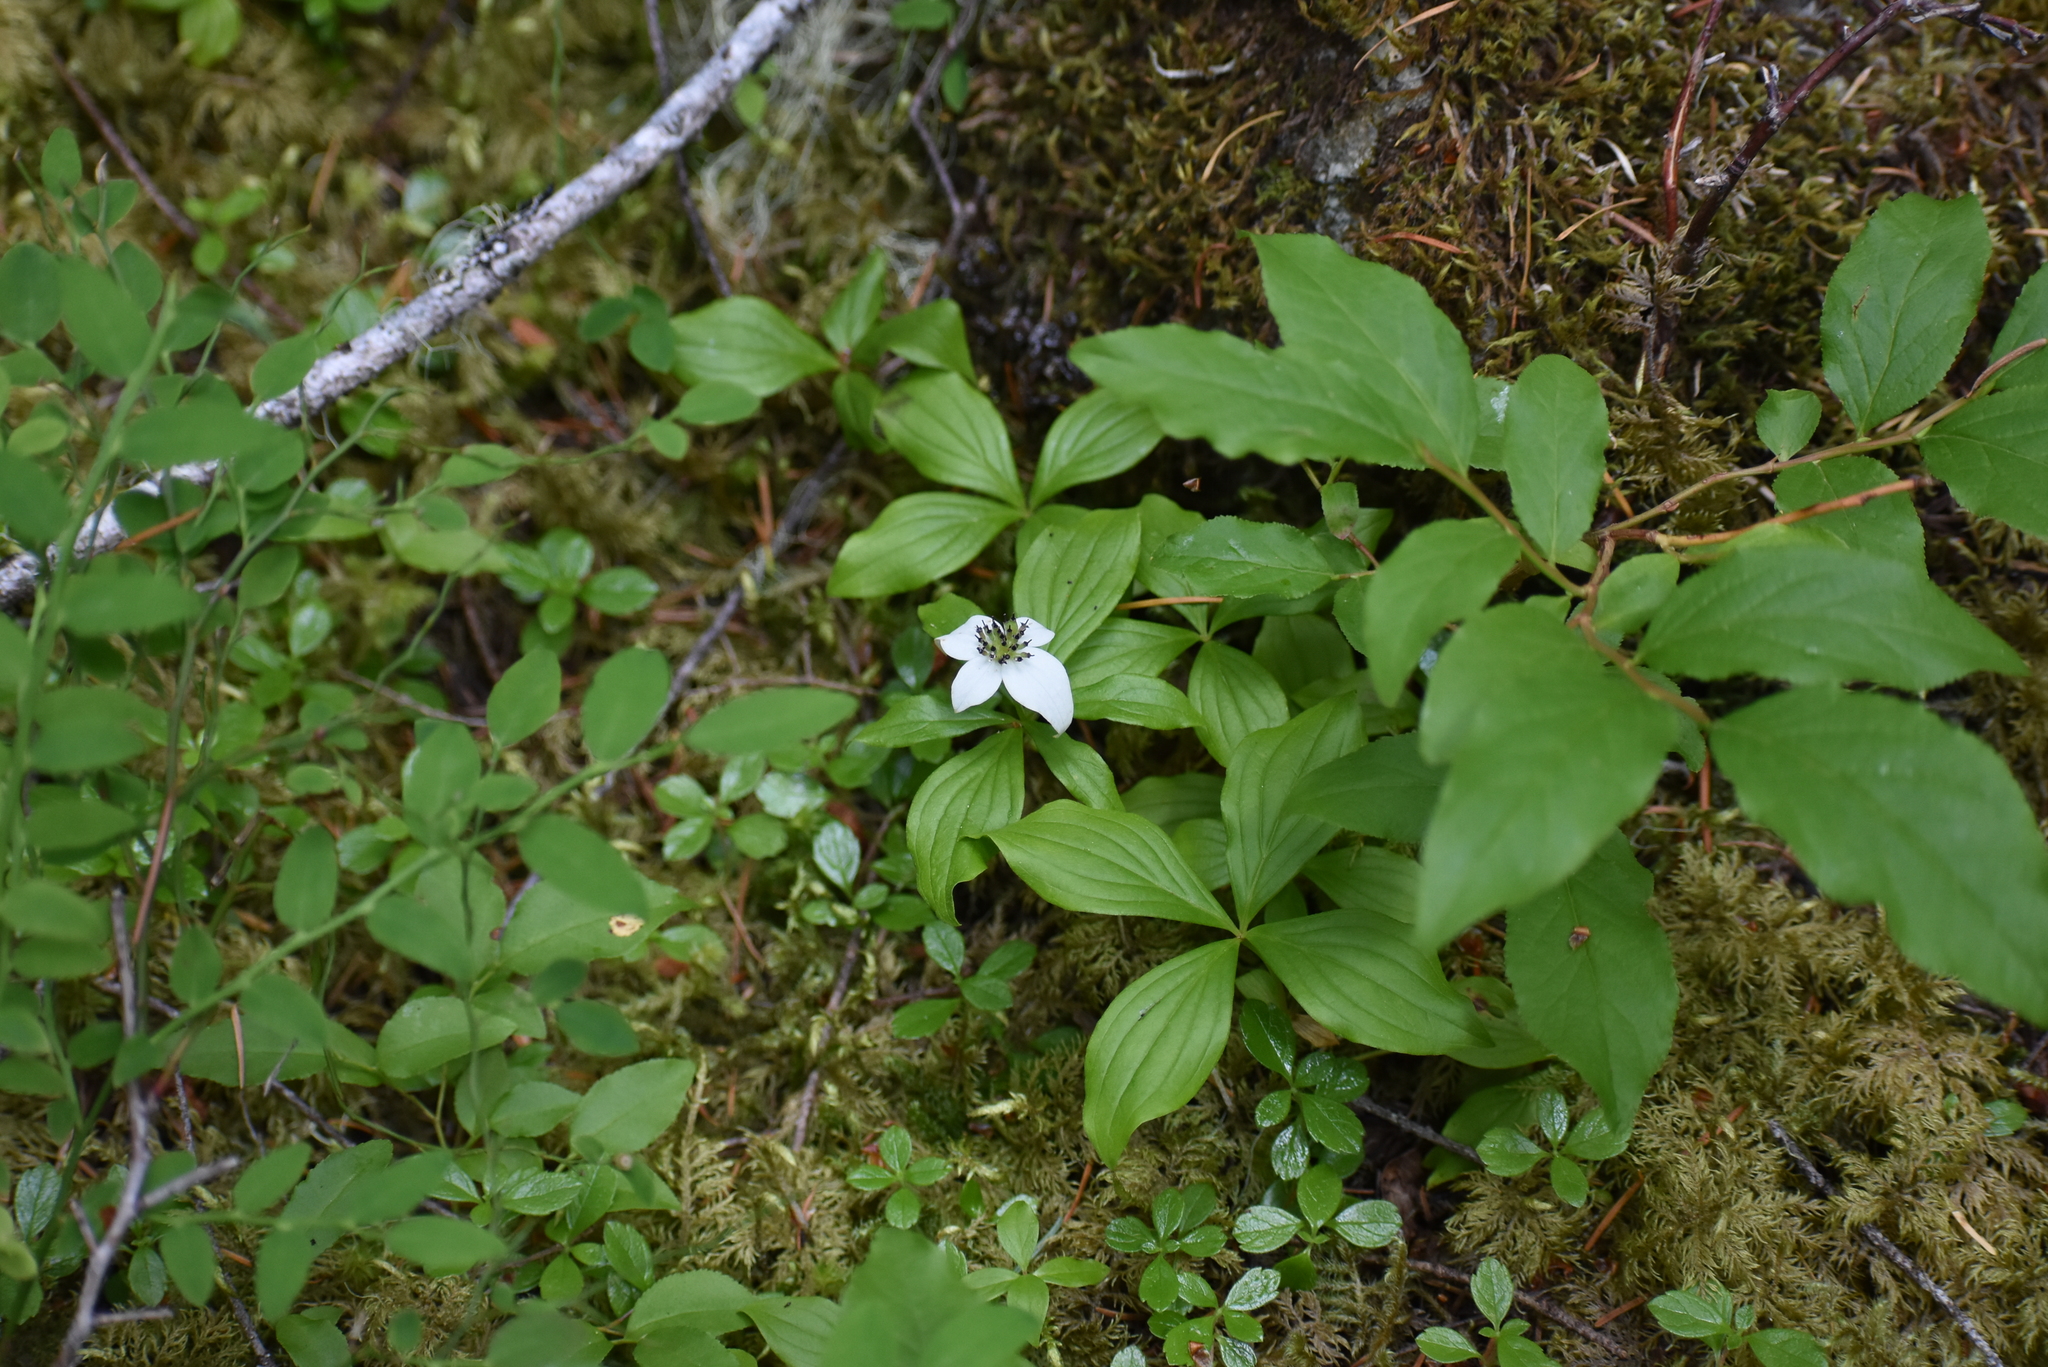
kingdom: Plantae
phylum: Tracheophyta
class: Magnoliopsida
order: Cornales
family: Cornaceae
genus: Cornus
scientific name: Cornus unalaschkensis
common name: Alaska bunchberry
